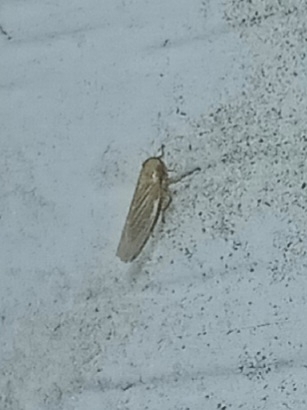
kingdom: Animalia
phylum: Arthropoda
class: Insecta
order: Hemiptera
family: Cicadellidae
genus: Graminella
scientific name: Graminella nigrifrons
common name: Blackfaced leafhopper
